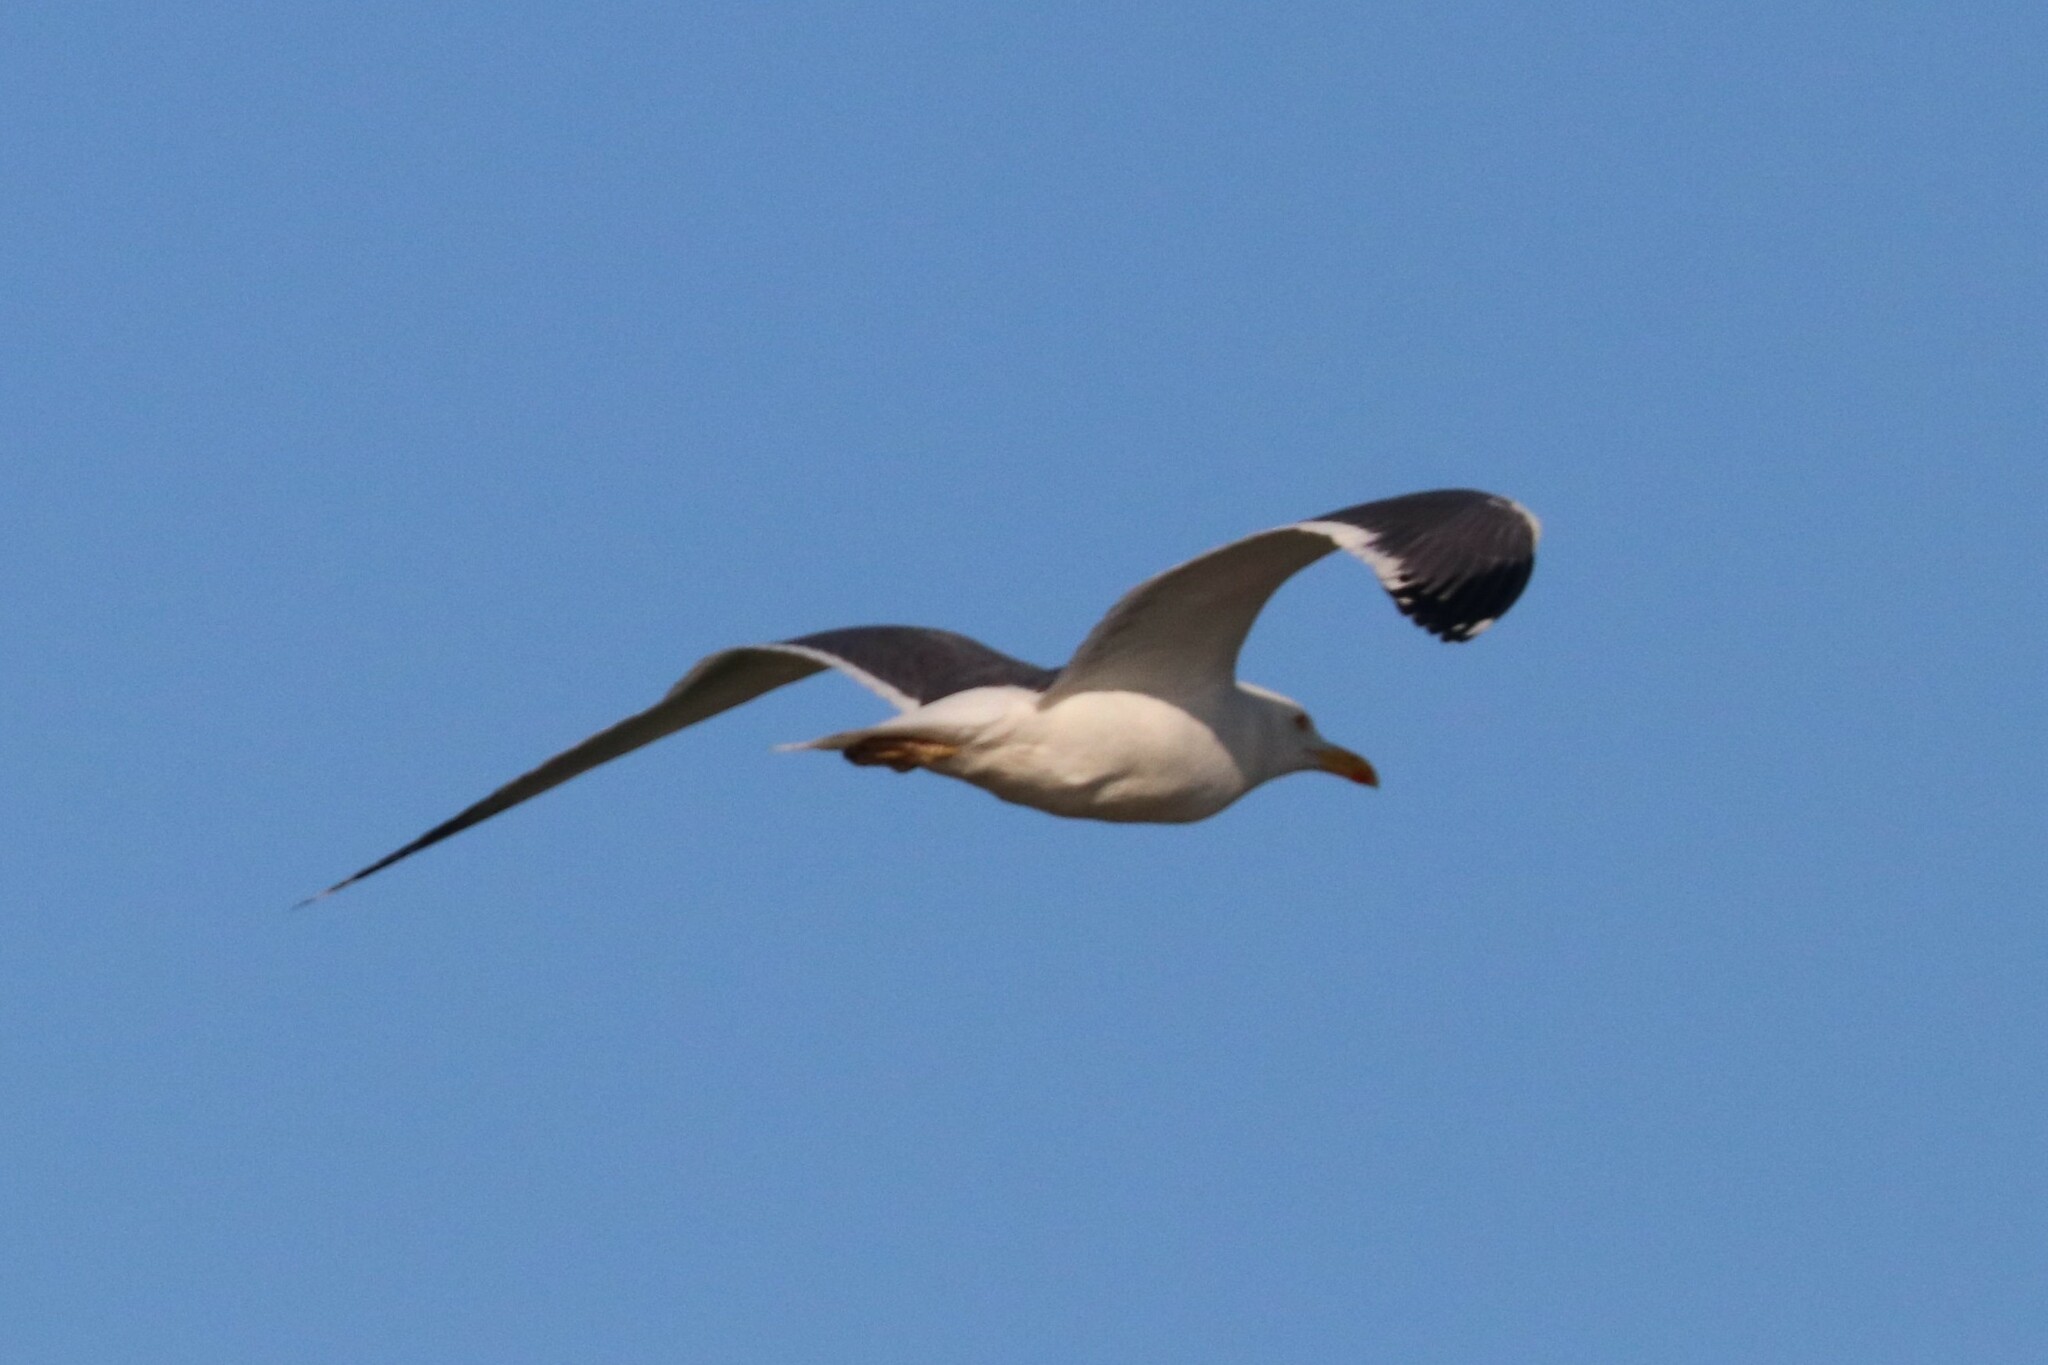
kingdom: Animalia
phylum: Chordata
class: Aves
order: Charadriiformes
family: Laridae
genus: Larus
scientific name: Larus fuscus
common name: Lesser black-backed gull
